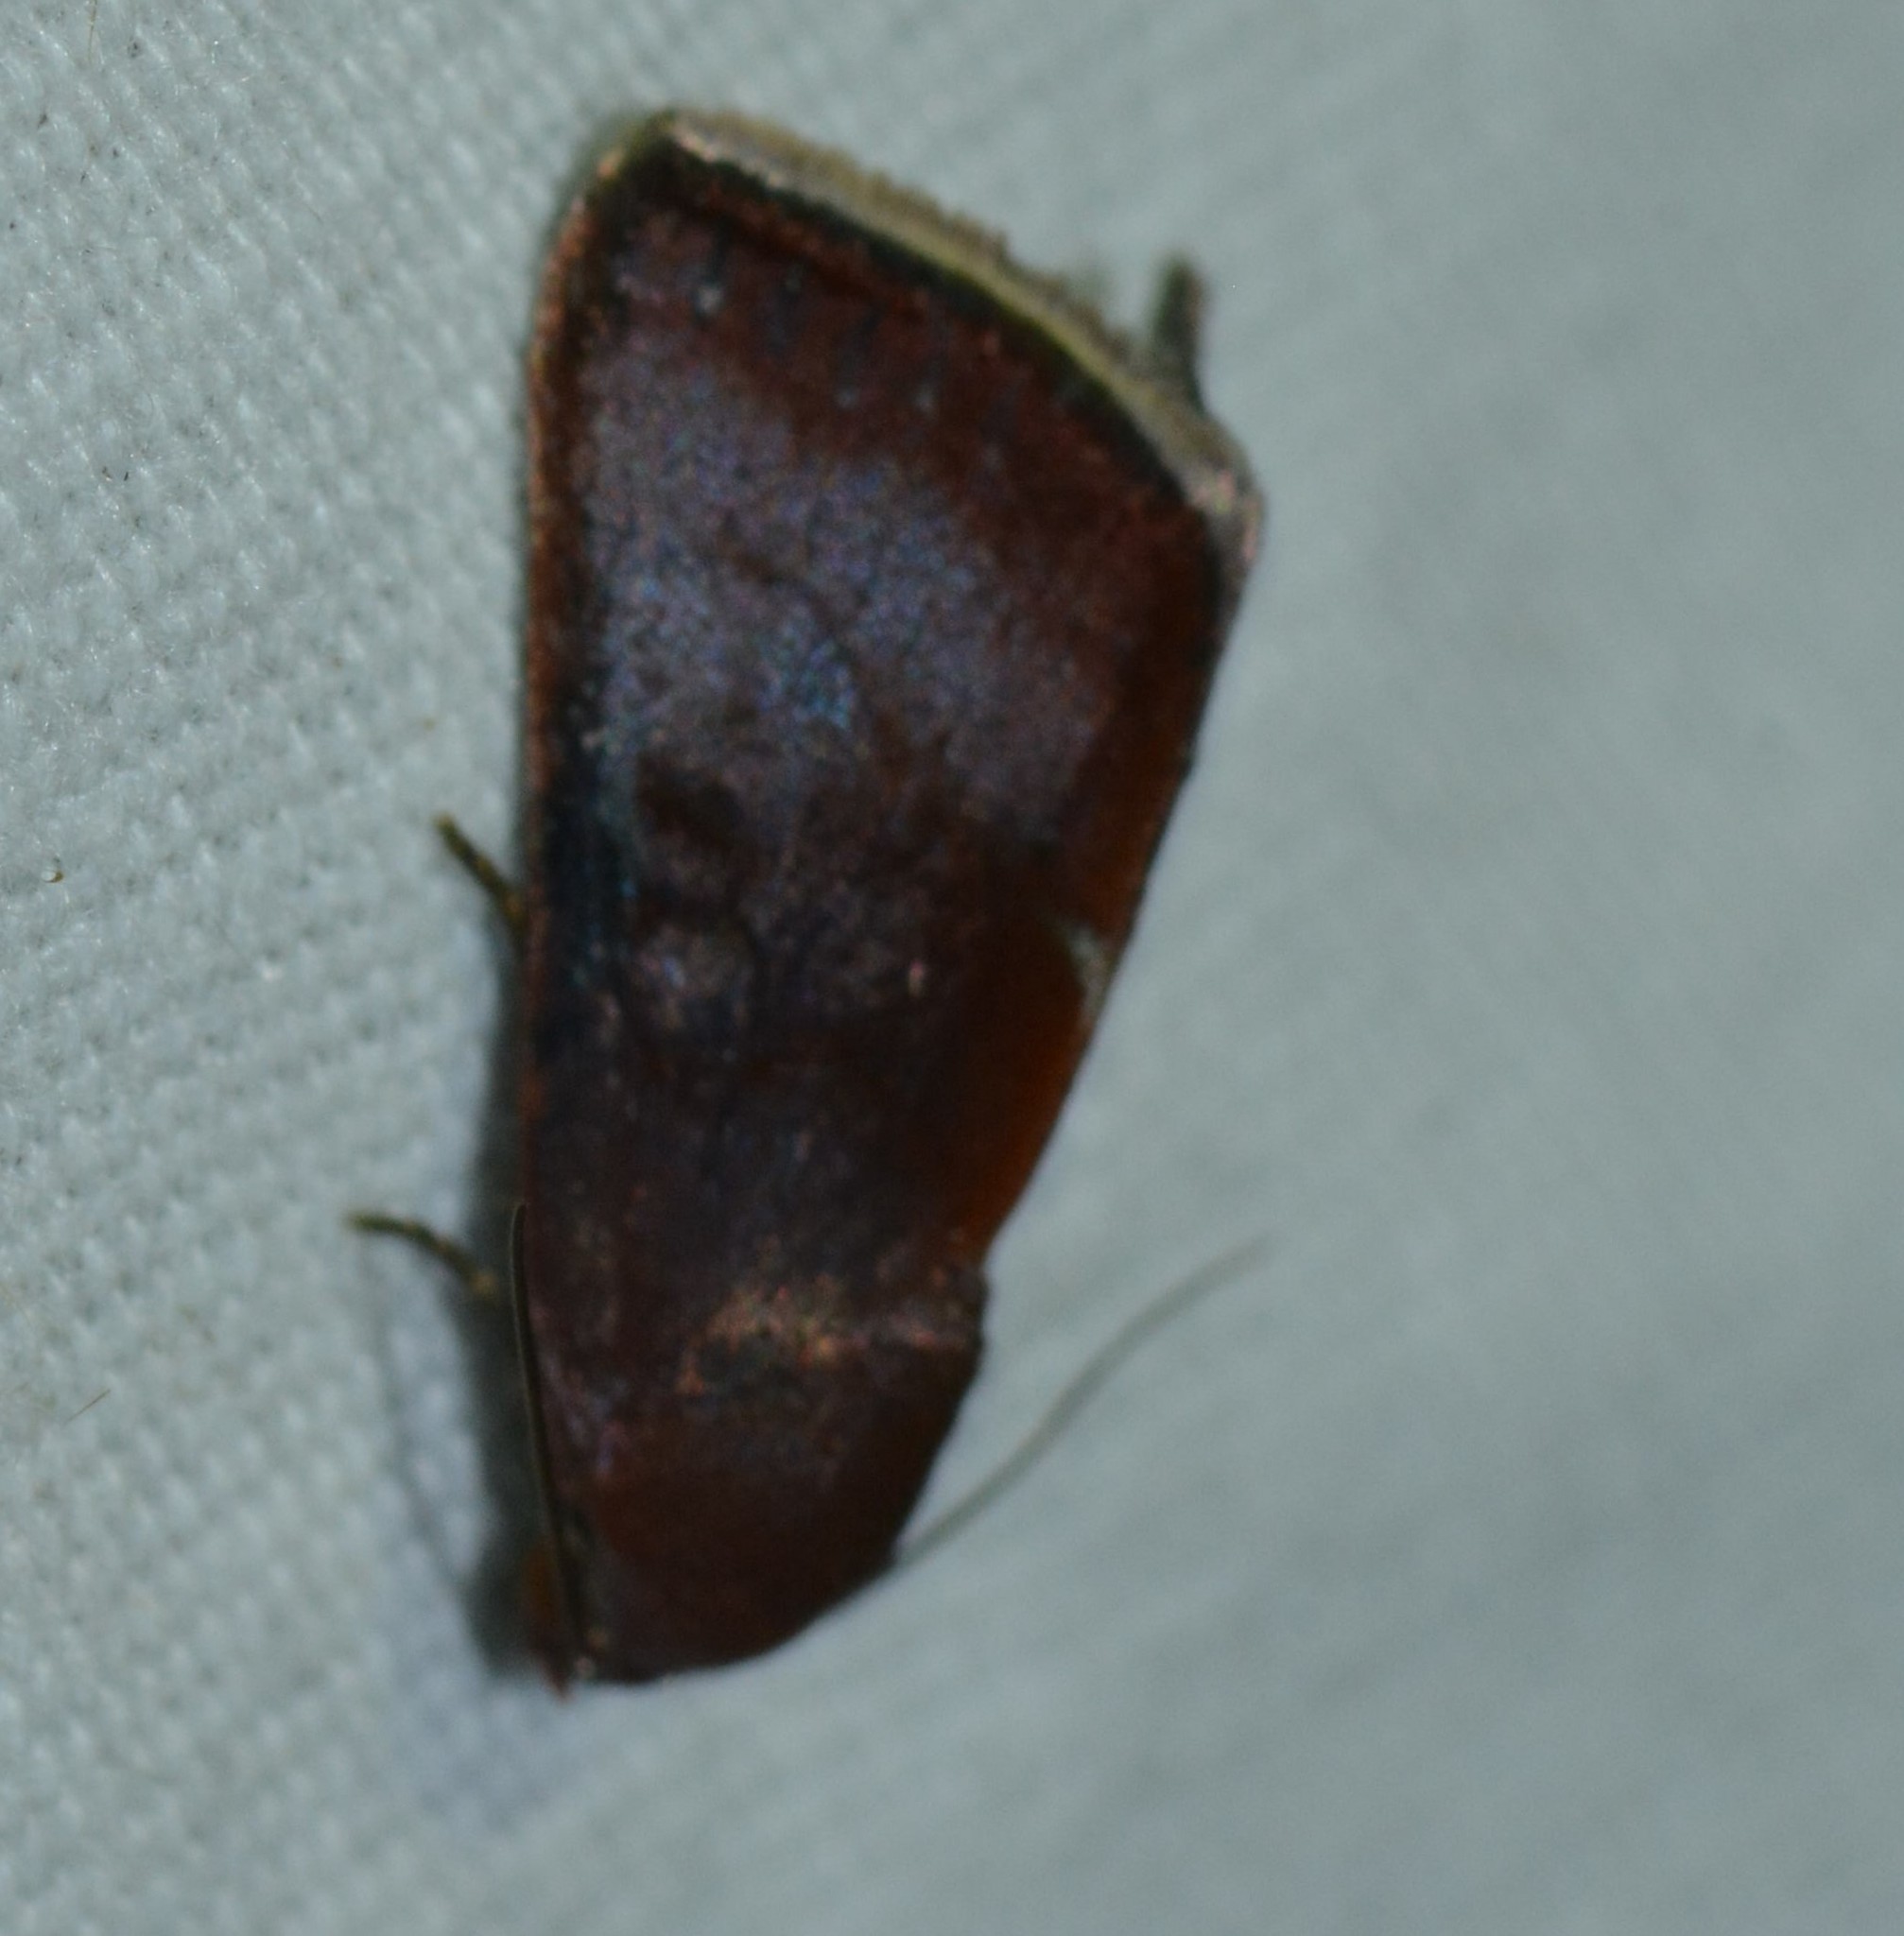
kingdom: Animalia
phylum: Arthropoda
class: Insecta
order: Lepidoptera
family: Noctuidae
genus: Galgula
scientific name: Galgula partita
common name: Wedgeling
